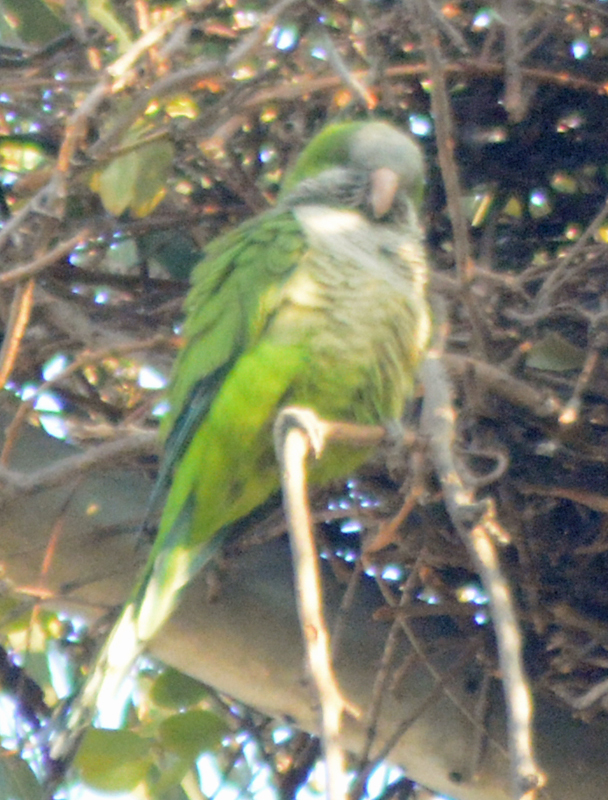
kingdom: Animalia
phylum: Chordata
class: Aves
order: Psittaciformes
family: Psittacidae
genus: Myiopsitta
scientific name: Myiopsitta monachus
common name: Monk parakeet
